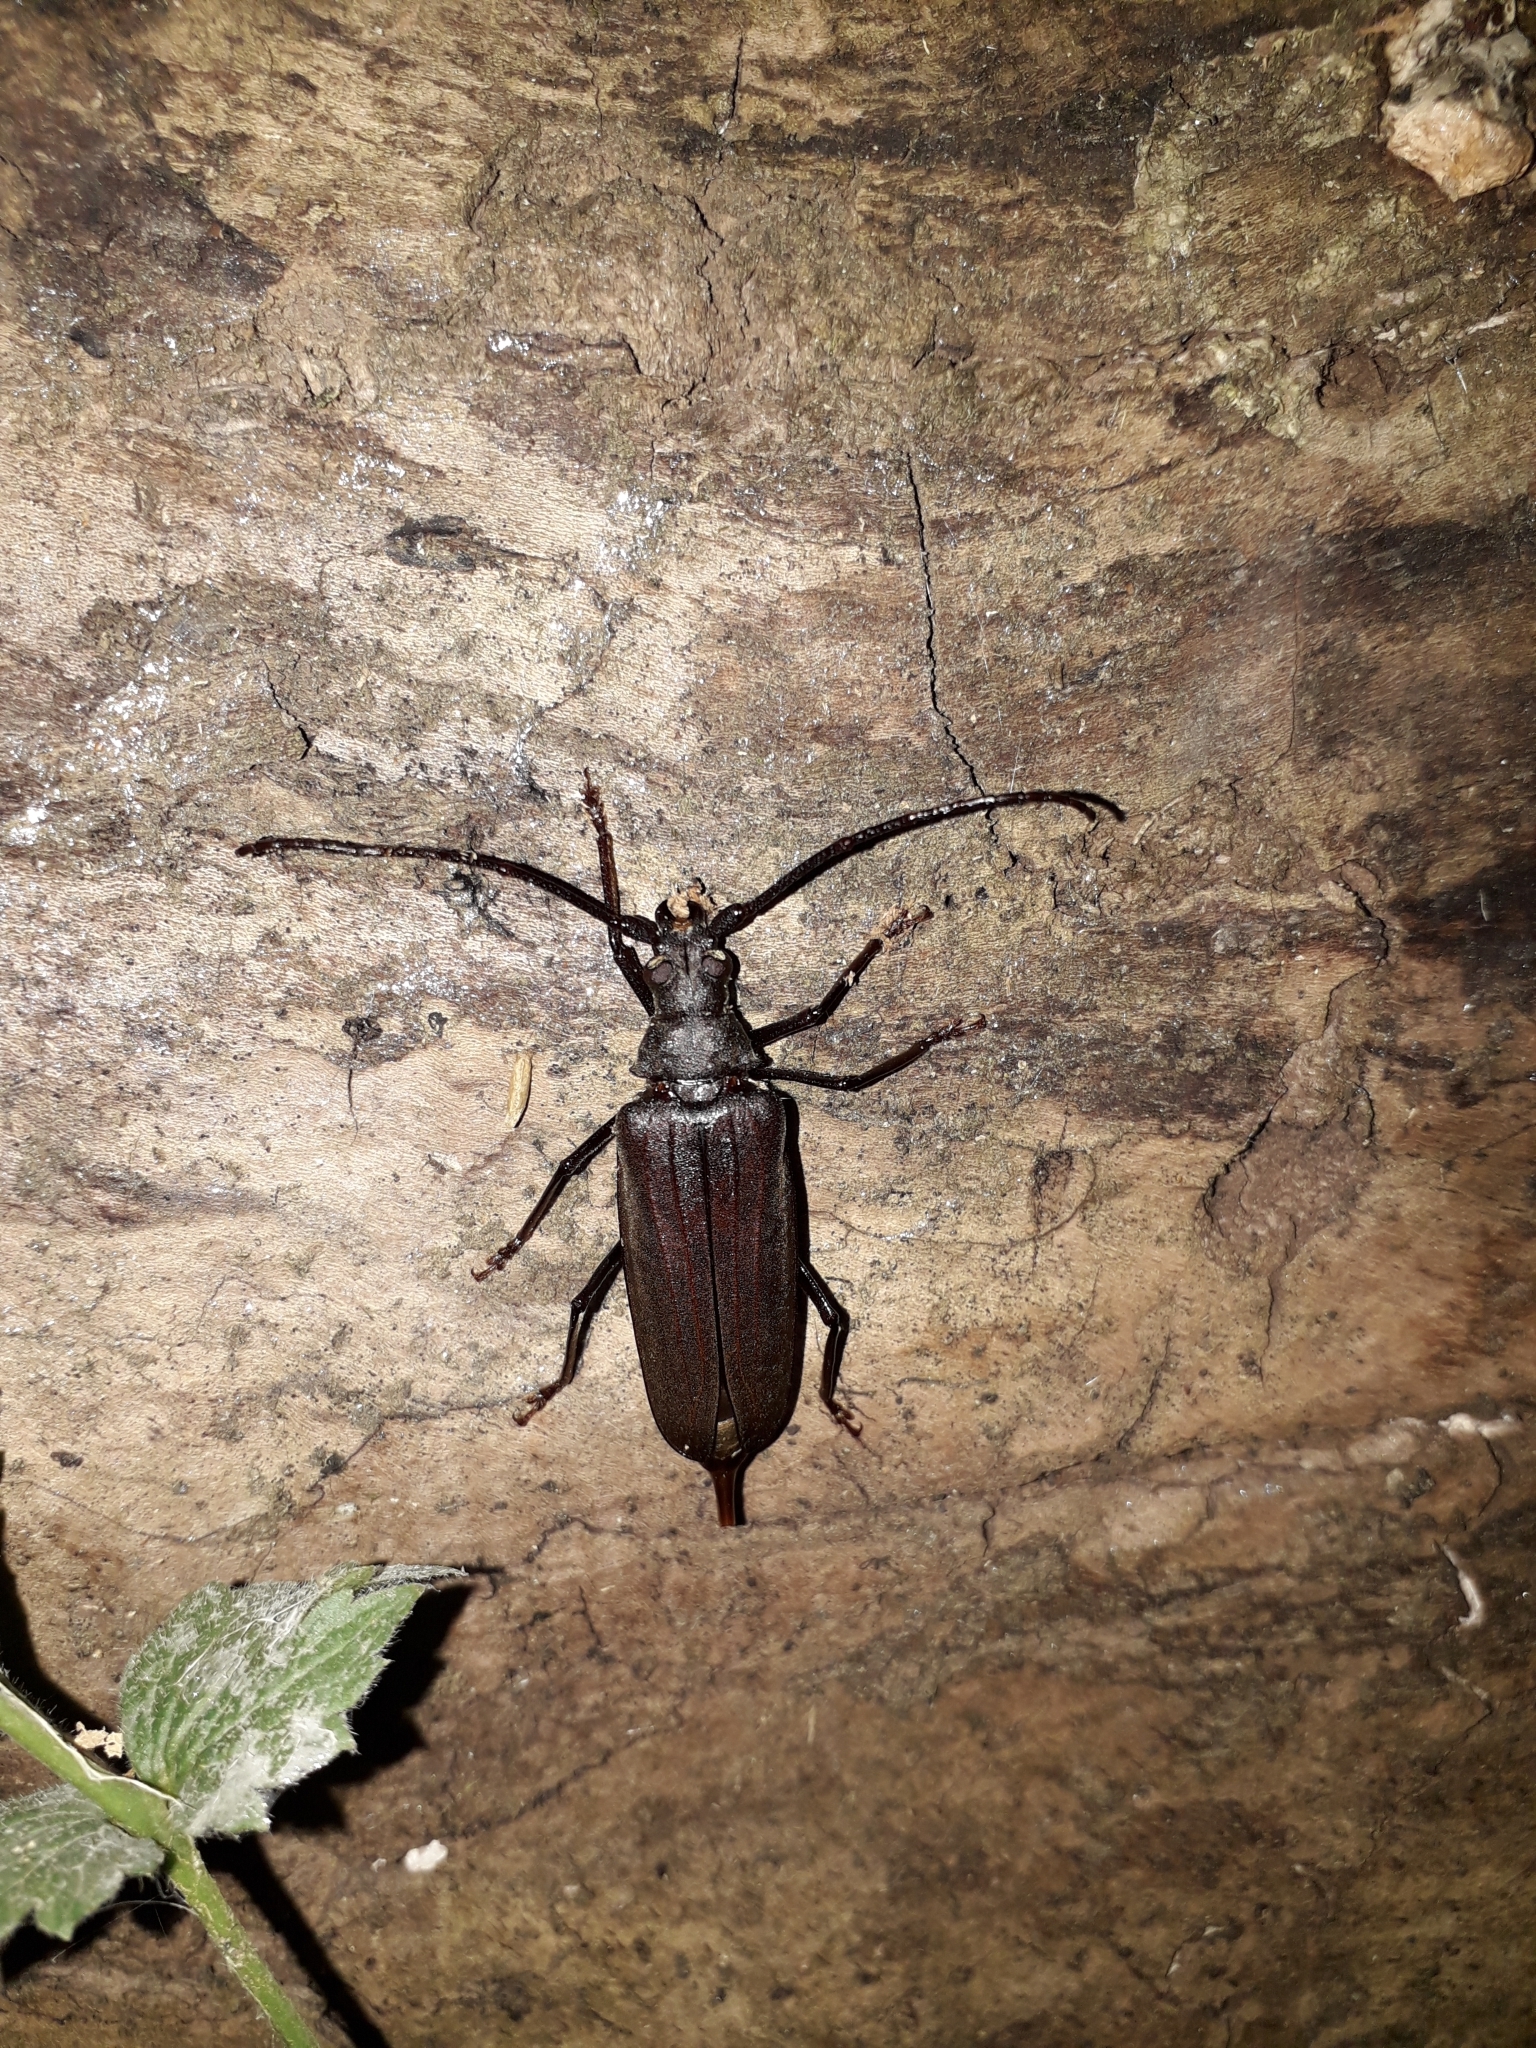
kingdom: Animalia
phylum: Arthropoda
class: Insecta
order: Coleoptera
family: Cerambycidae
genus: Aegosoma
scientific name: Aegosoma scabricorne
